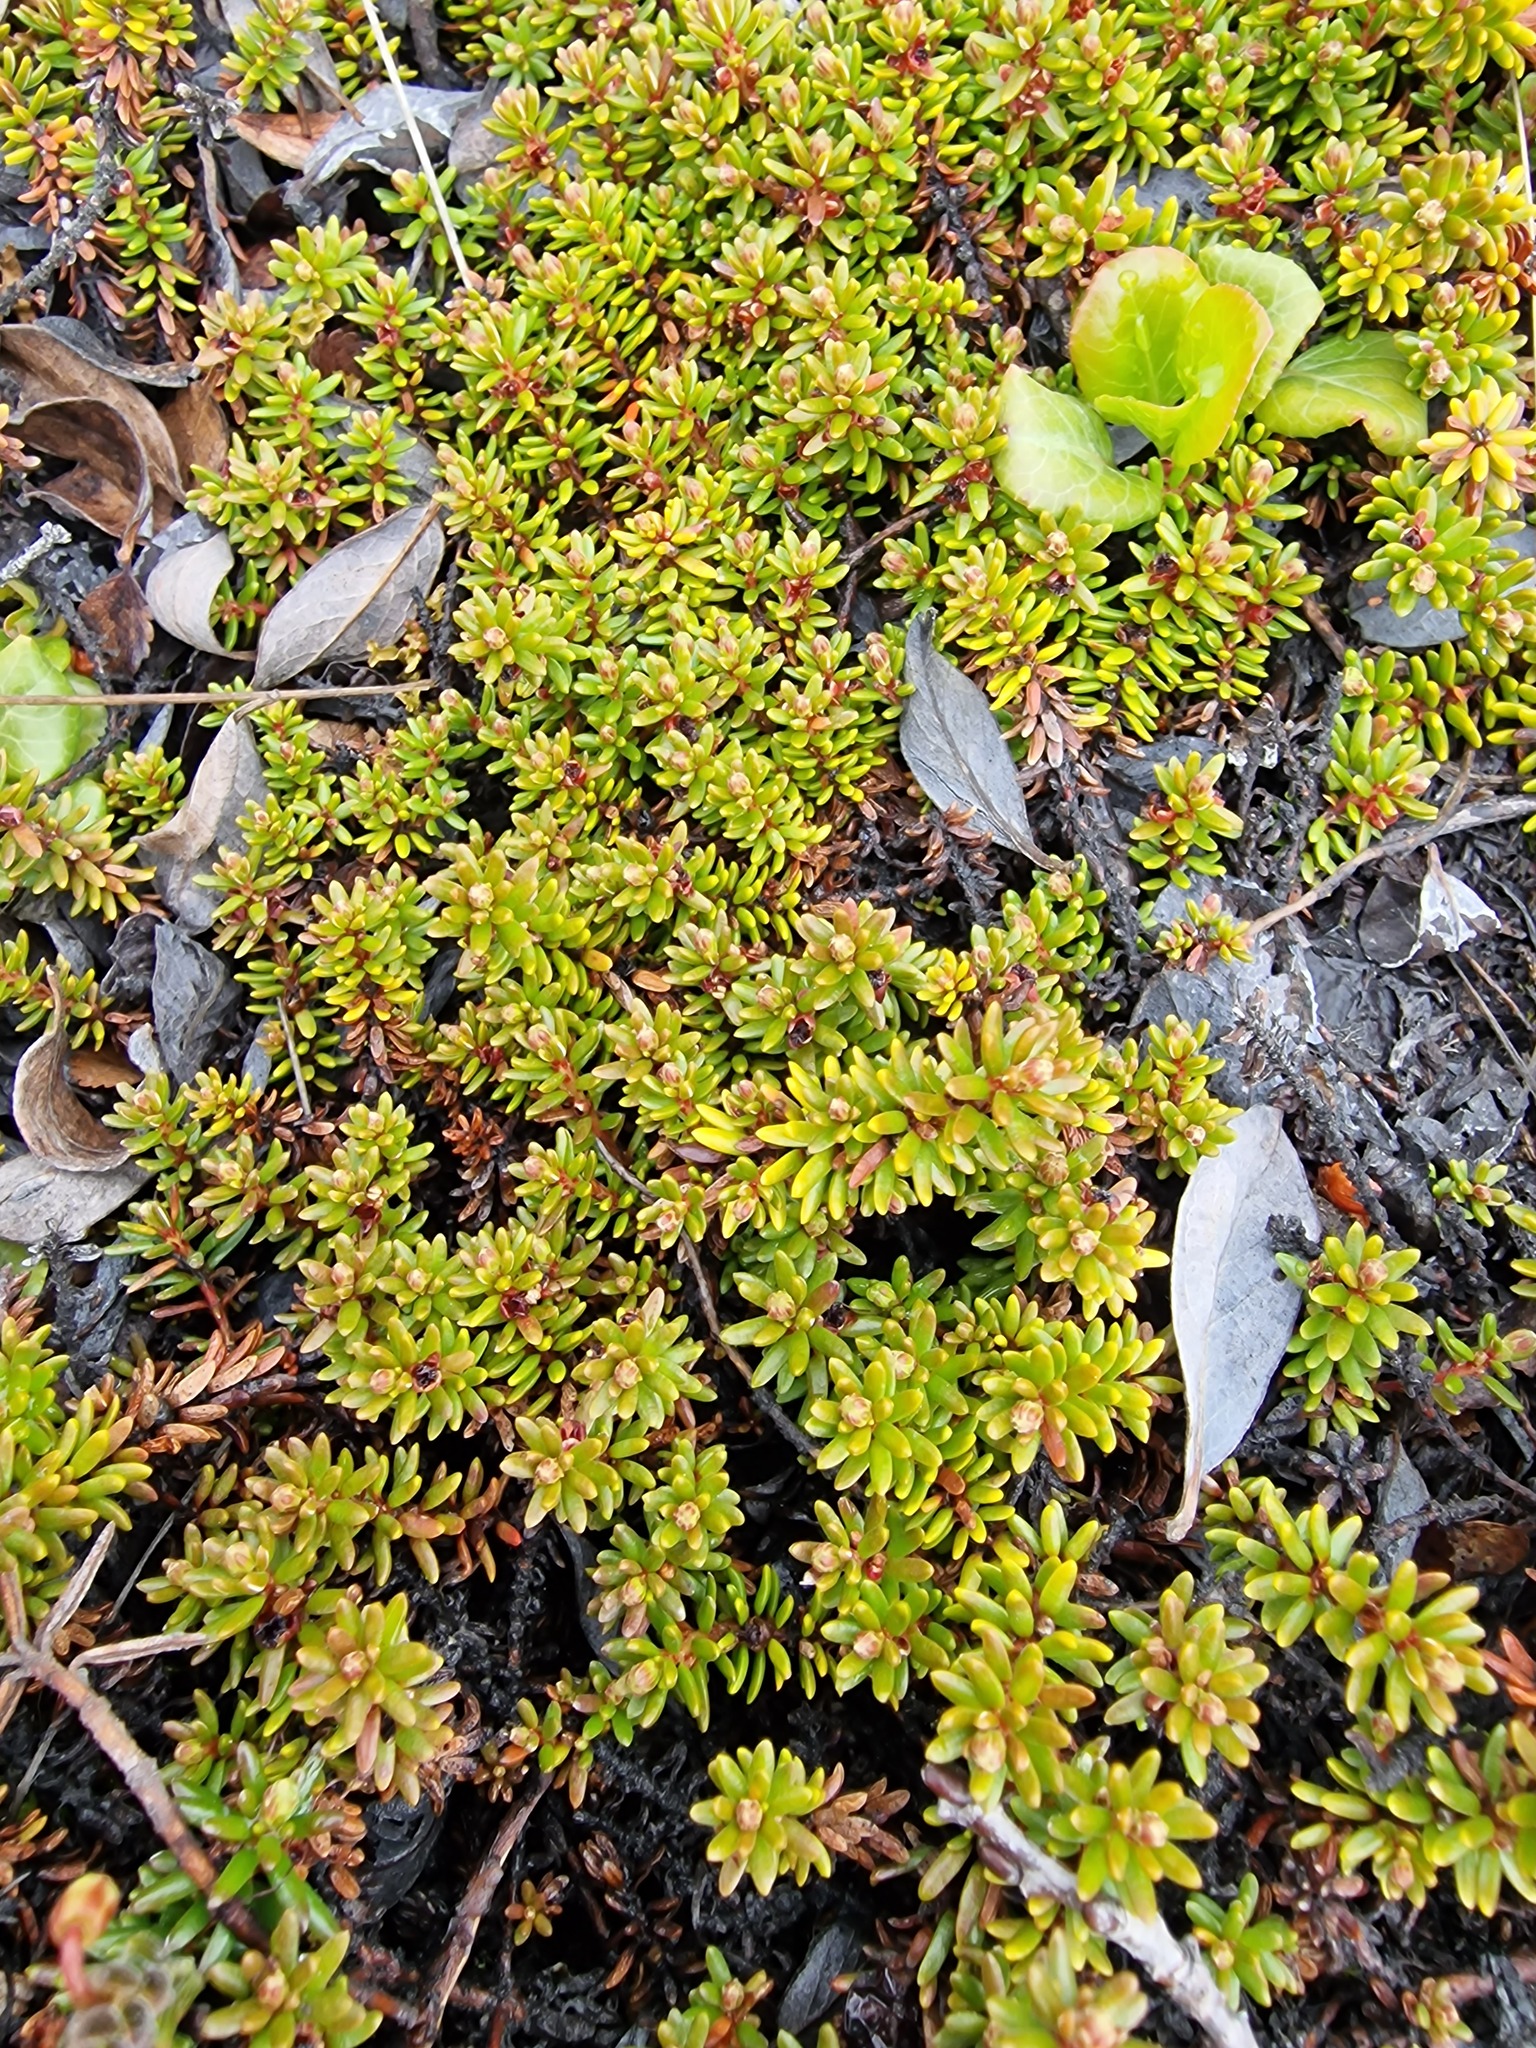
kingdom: Plantae
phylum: Tracheophyta
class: Magnoliopsida
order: Ericales
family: Ericaceae
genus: Empetrum
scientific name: Empetrum nigrum
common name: Black crowberry
